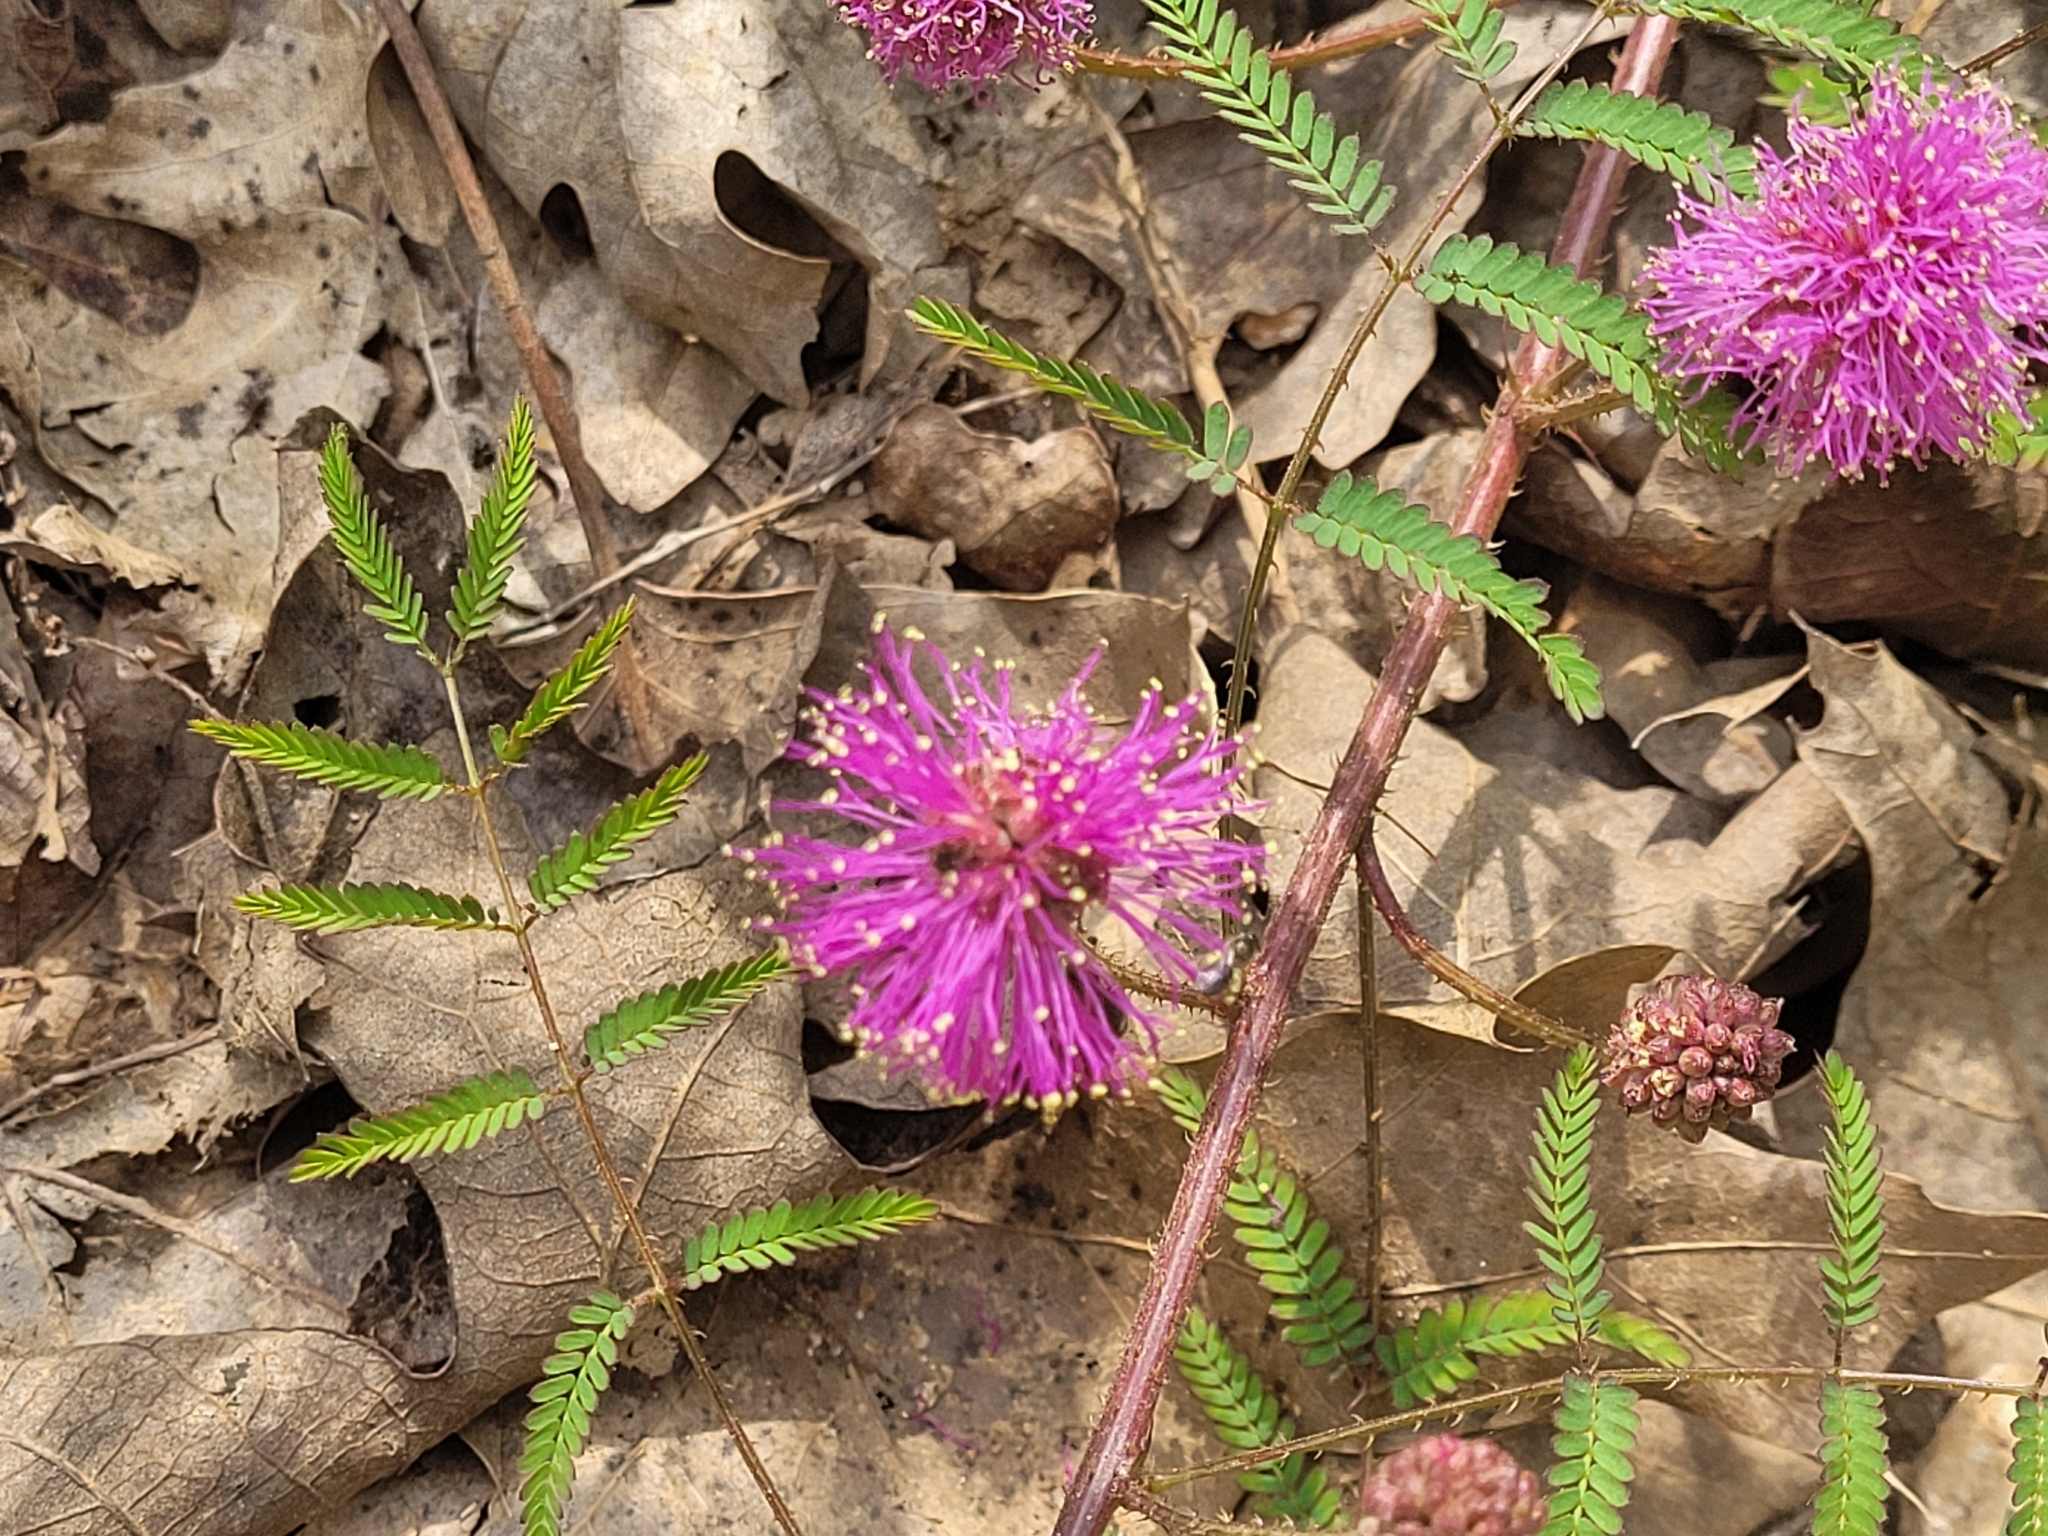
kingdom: Plantae
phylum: Tracheophyta
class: Magnoliopsida
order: Fabales
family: Fabaceae
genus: Mimosa
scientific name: Mimosa quadrivalvis
